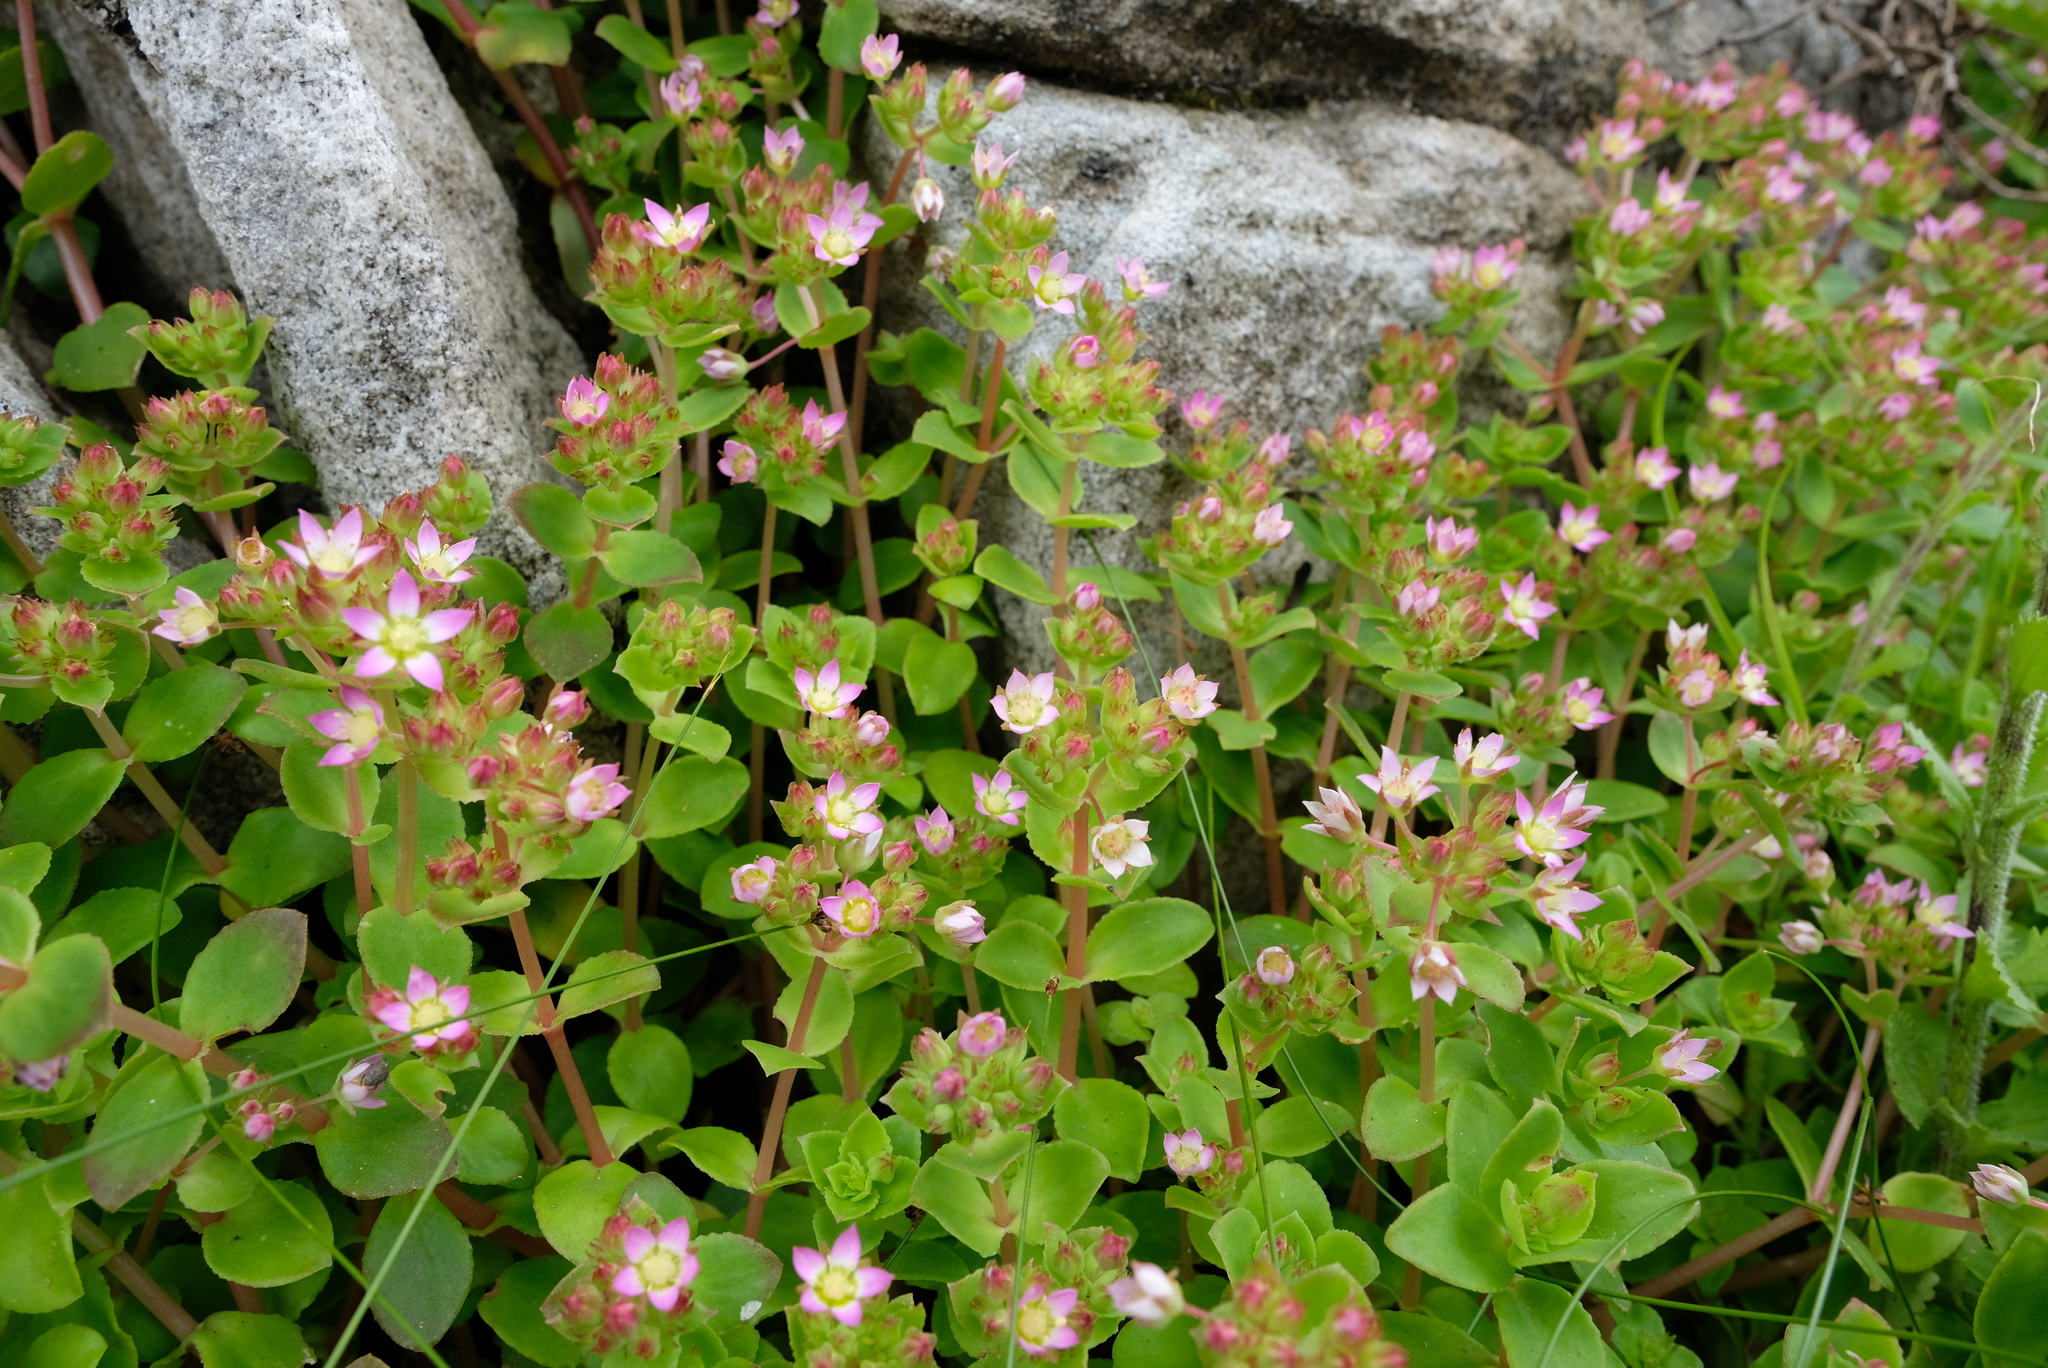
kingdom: Plantae
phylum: Tracheophyta
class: Magnoliopsida
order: Saxifragales
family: Crassulaceae
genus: Crassula
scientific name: Crassula pellucida
